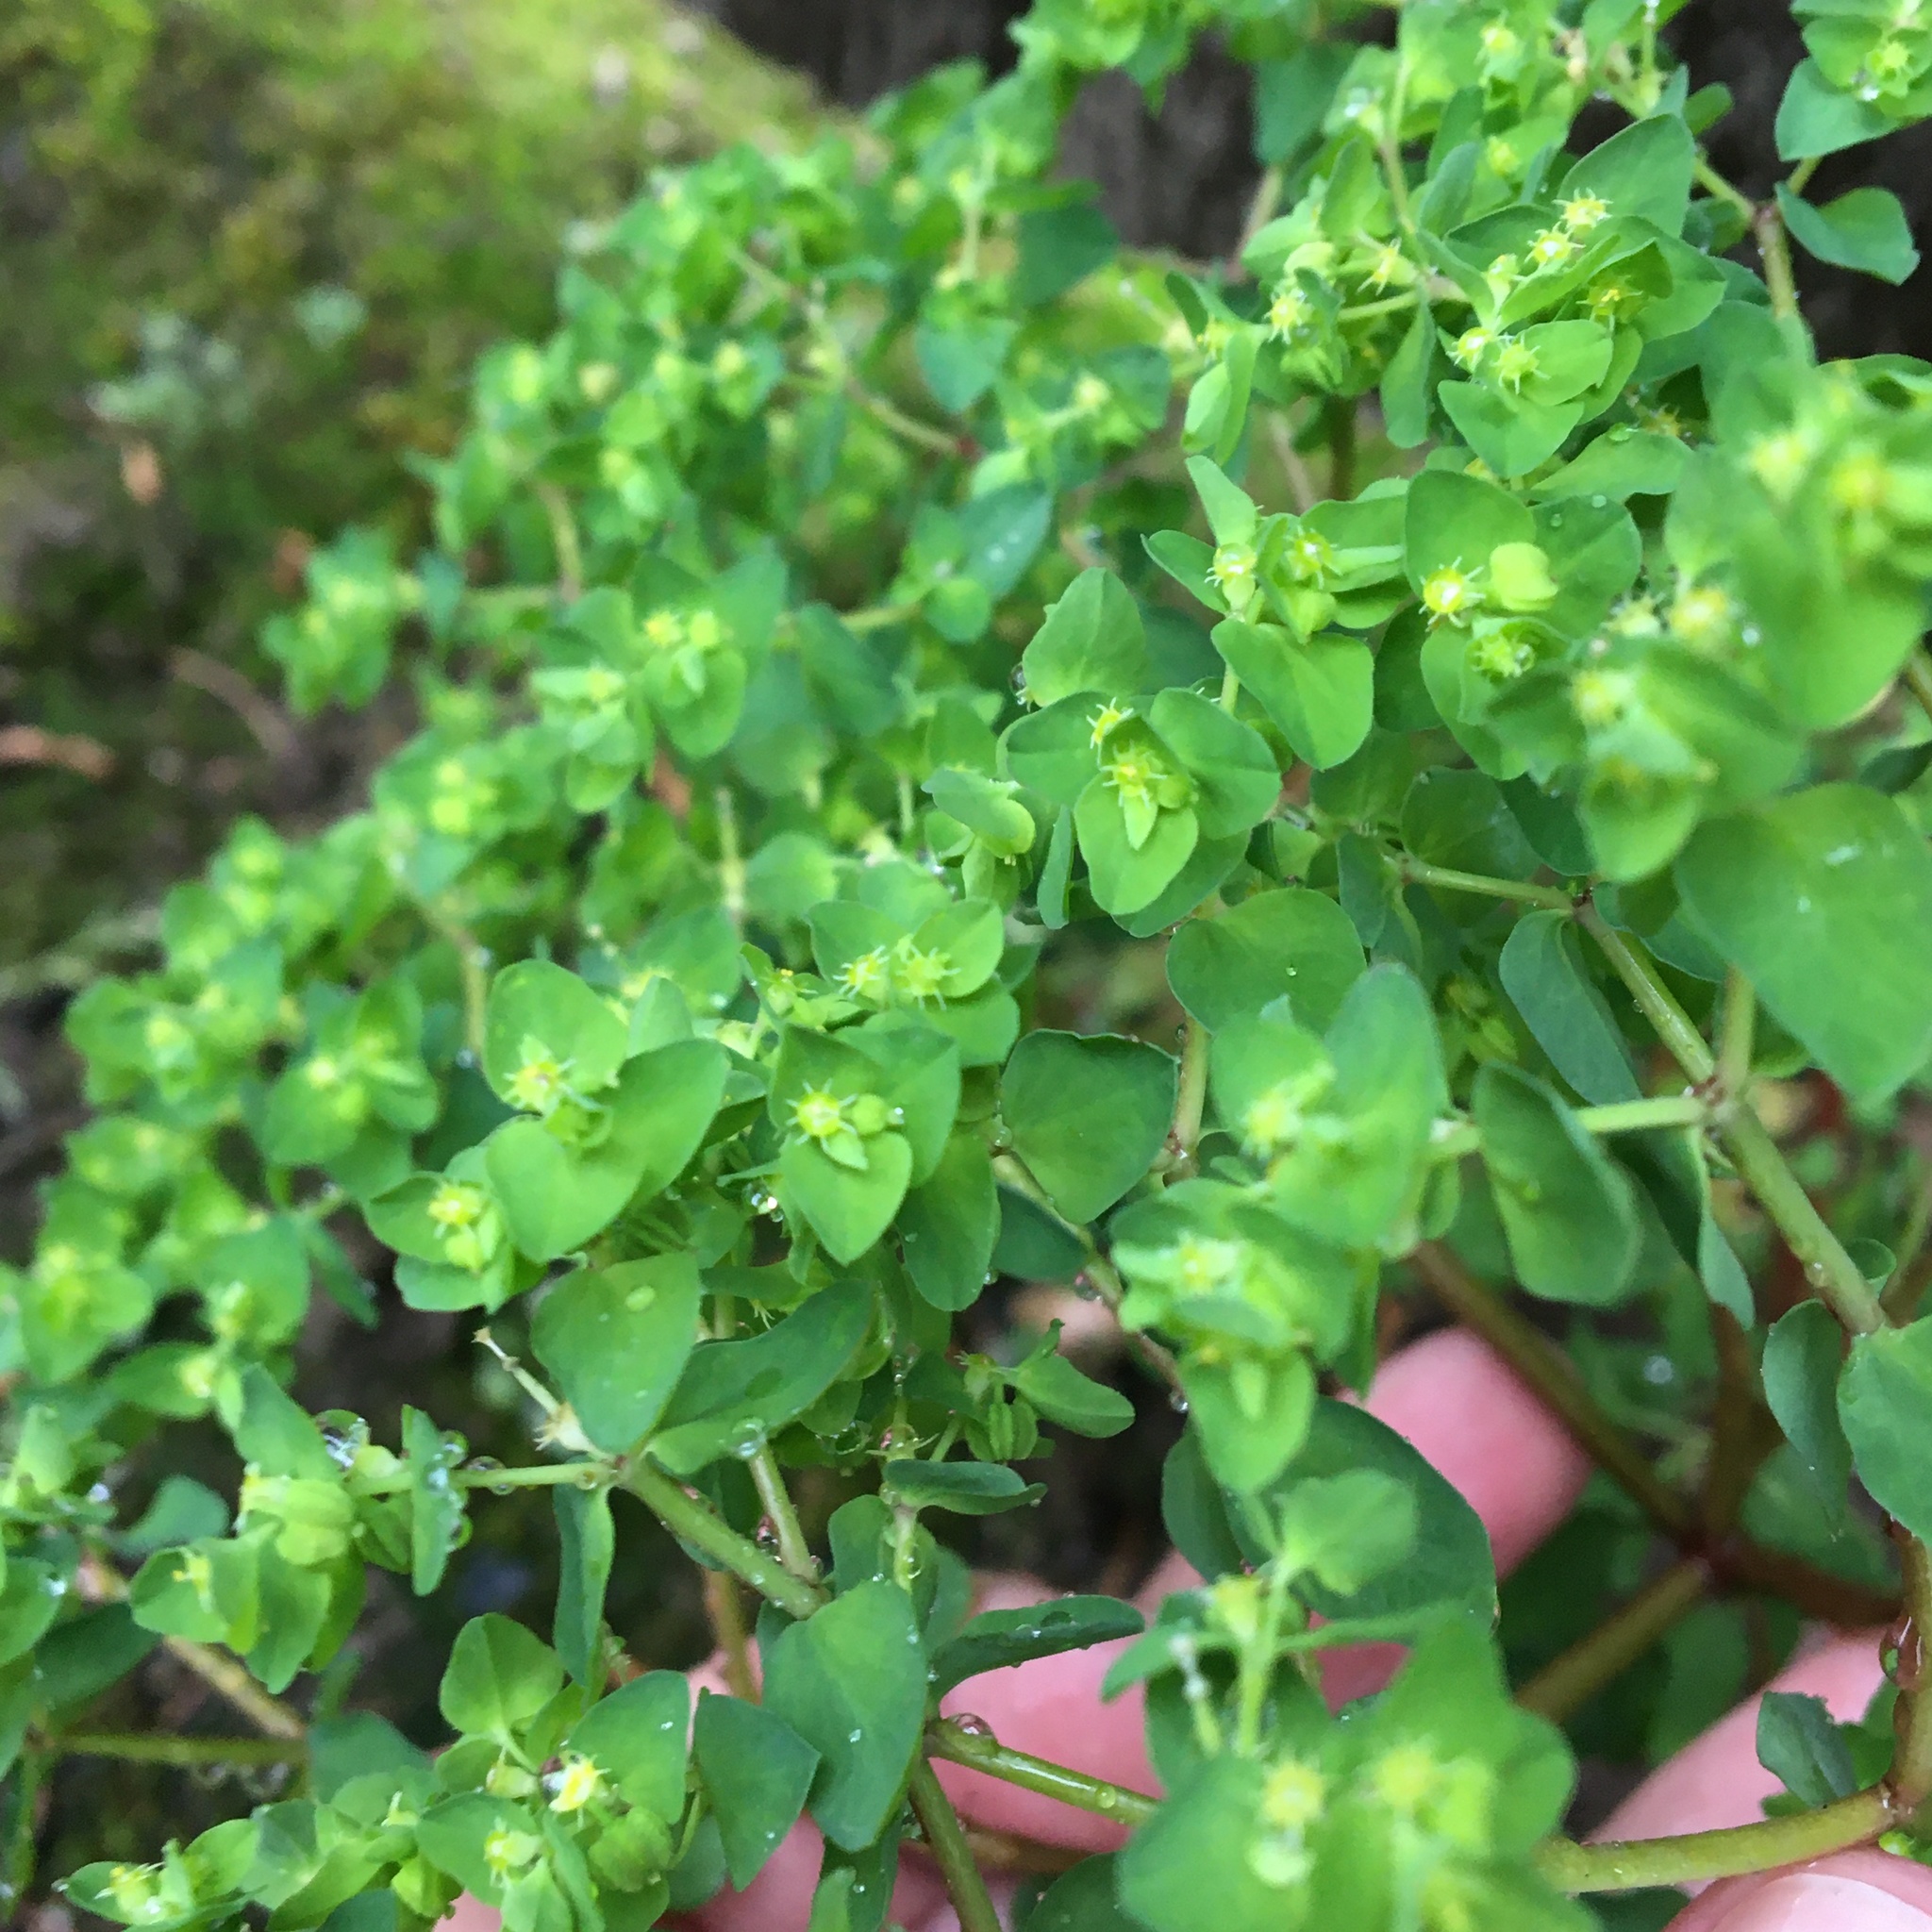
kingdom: Plantae
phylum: Tracheophyta
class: Magnoliopsida
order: Malpighiales
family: Euphorbiaceae
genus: Euphorbia
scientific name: Euphorbia peplus
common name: Petty spurge
